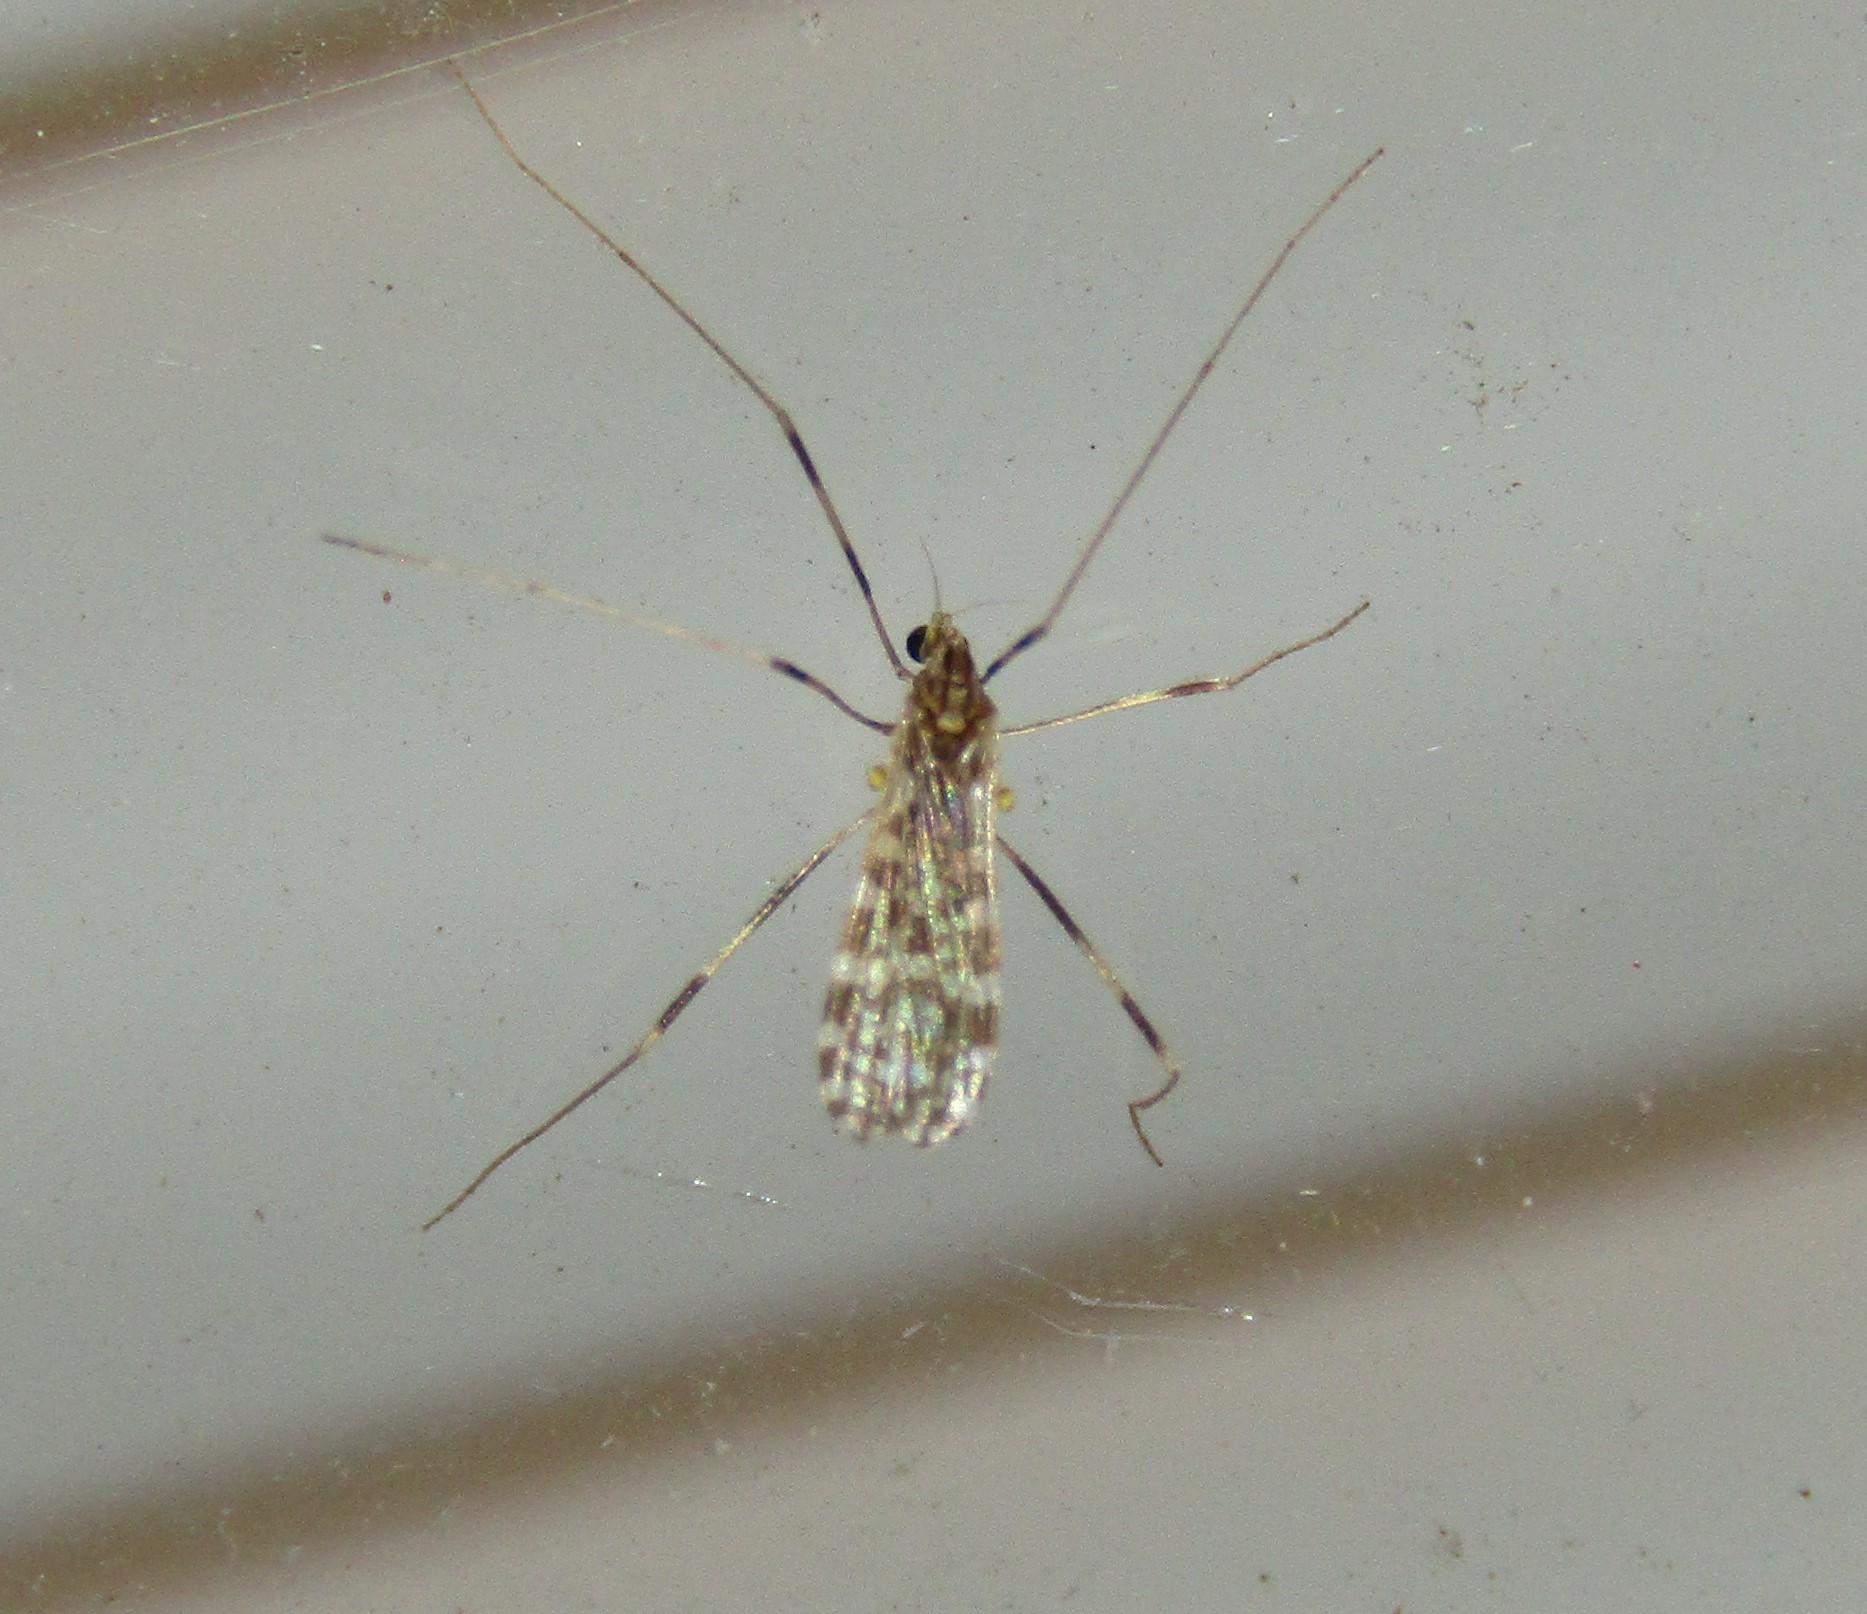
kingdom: Animalia
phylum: Arthropoda
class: Insecta
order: Diptera
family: Limoniidae
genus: Erioptera
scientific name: Erioptera caliptera
